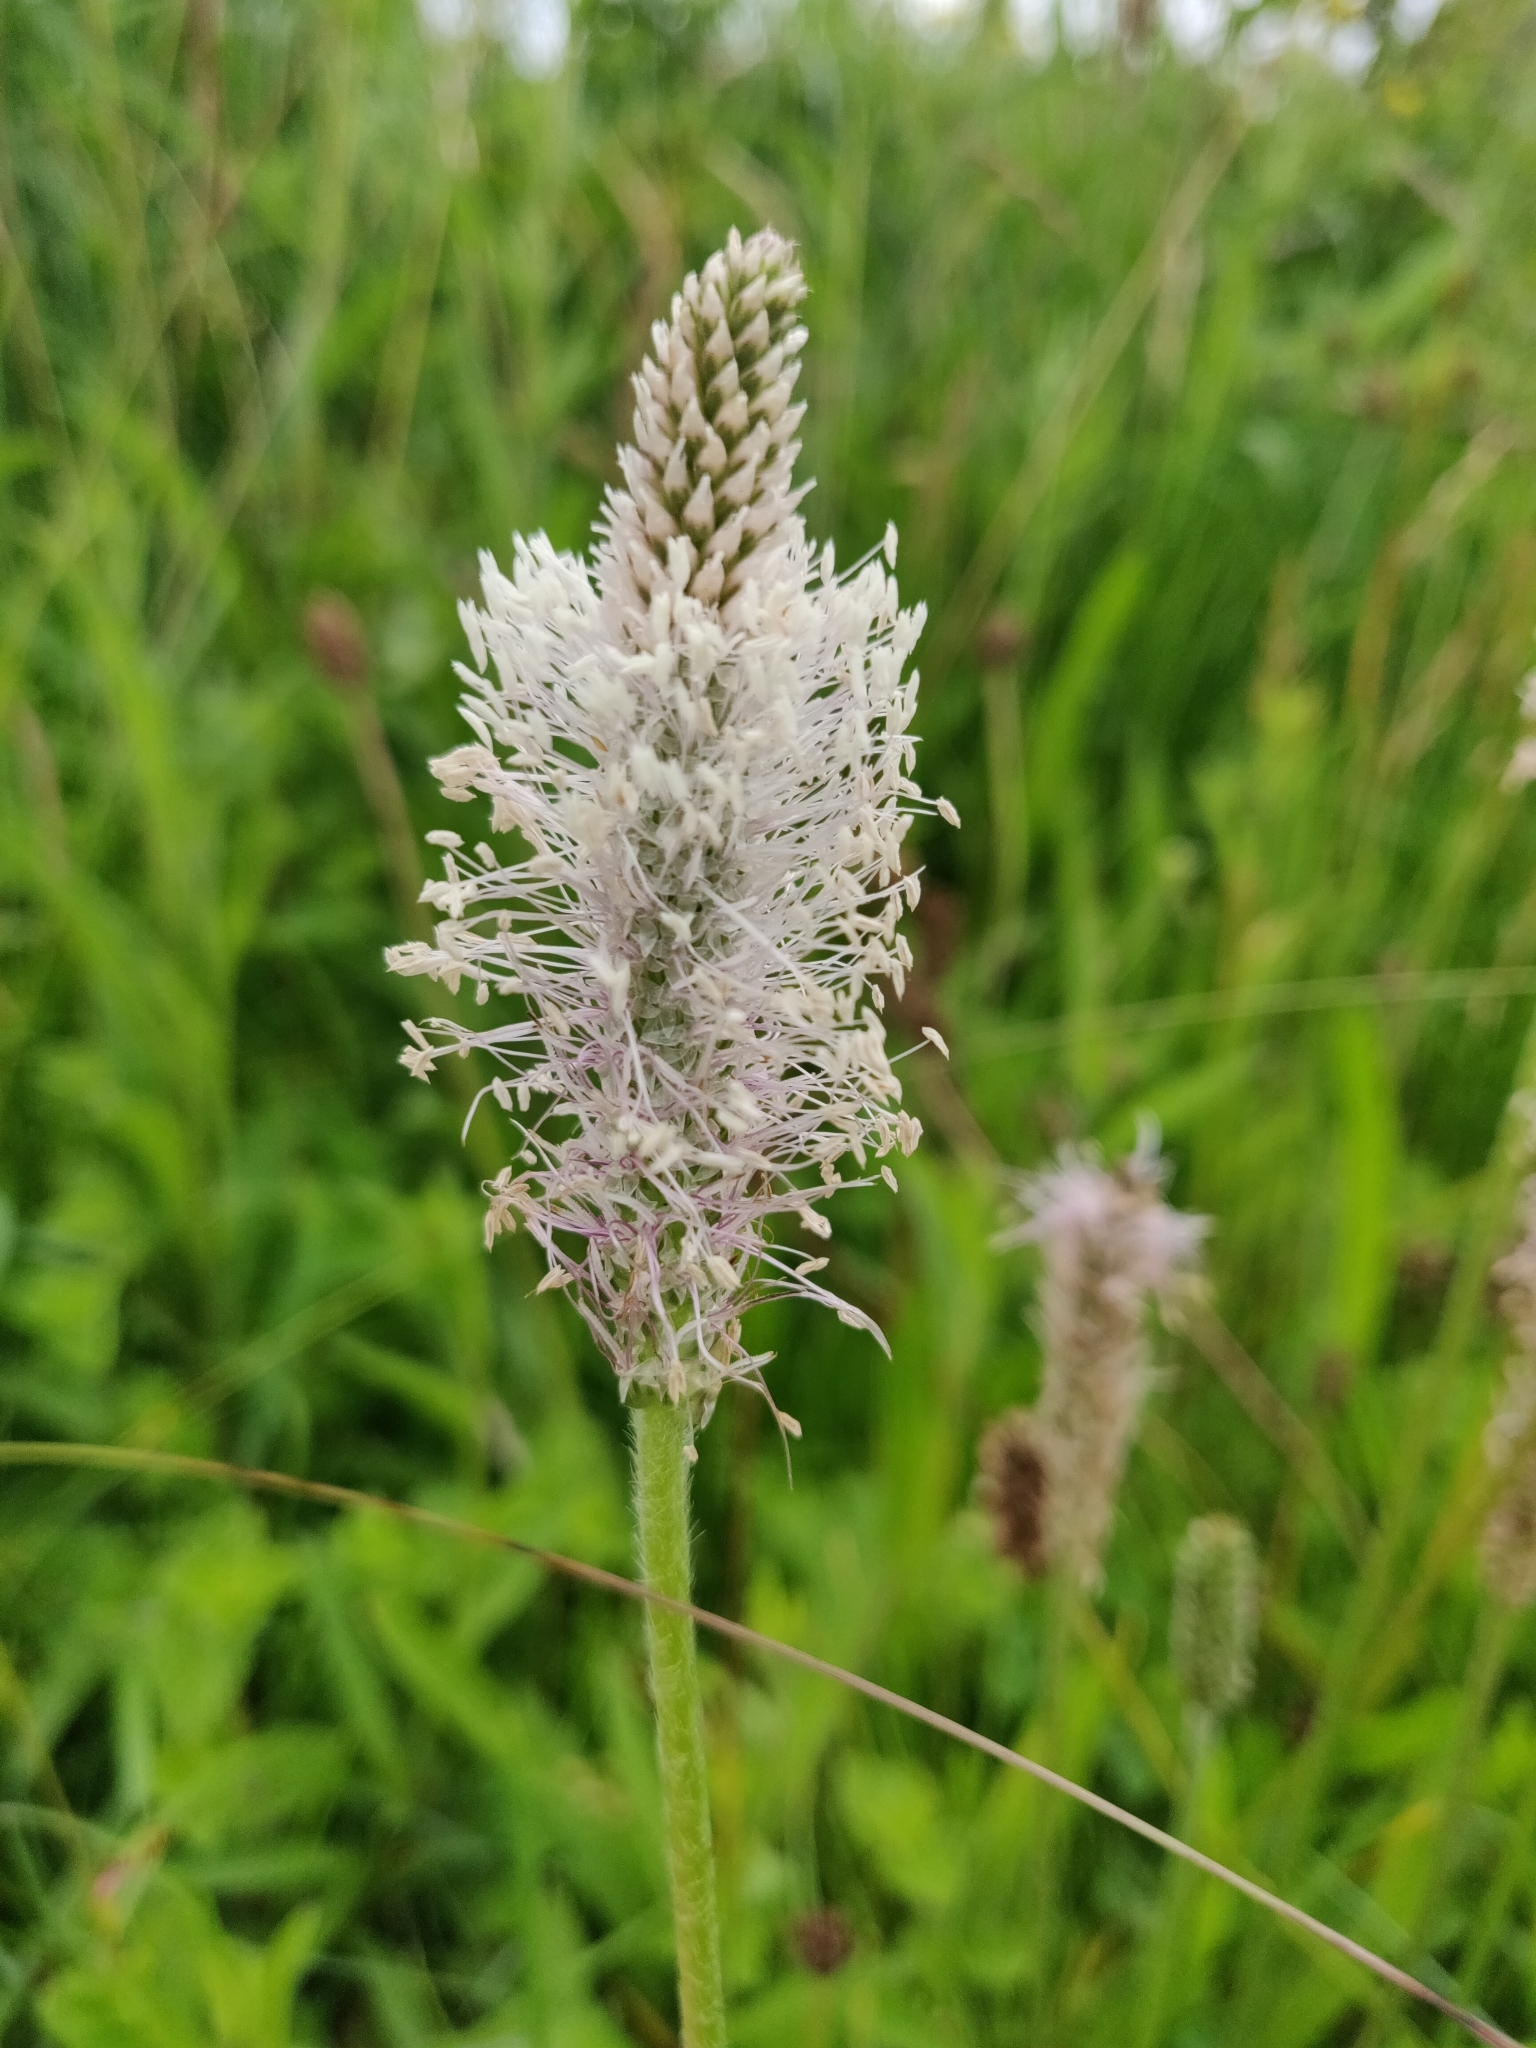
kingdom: Plantae
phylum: Tracheophyta
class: Magnoliopsida
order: Lamiales
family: Plantaginaceae
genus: Plantago
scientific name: Plantago media
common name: Hoary plantain
